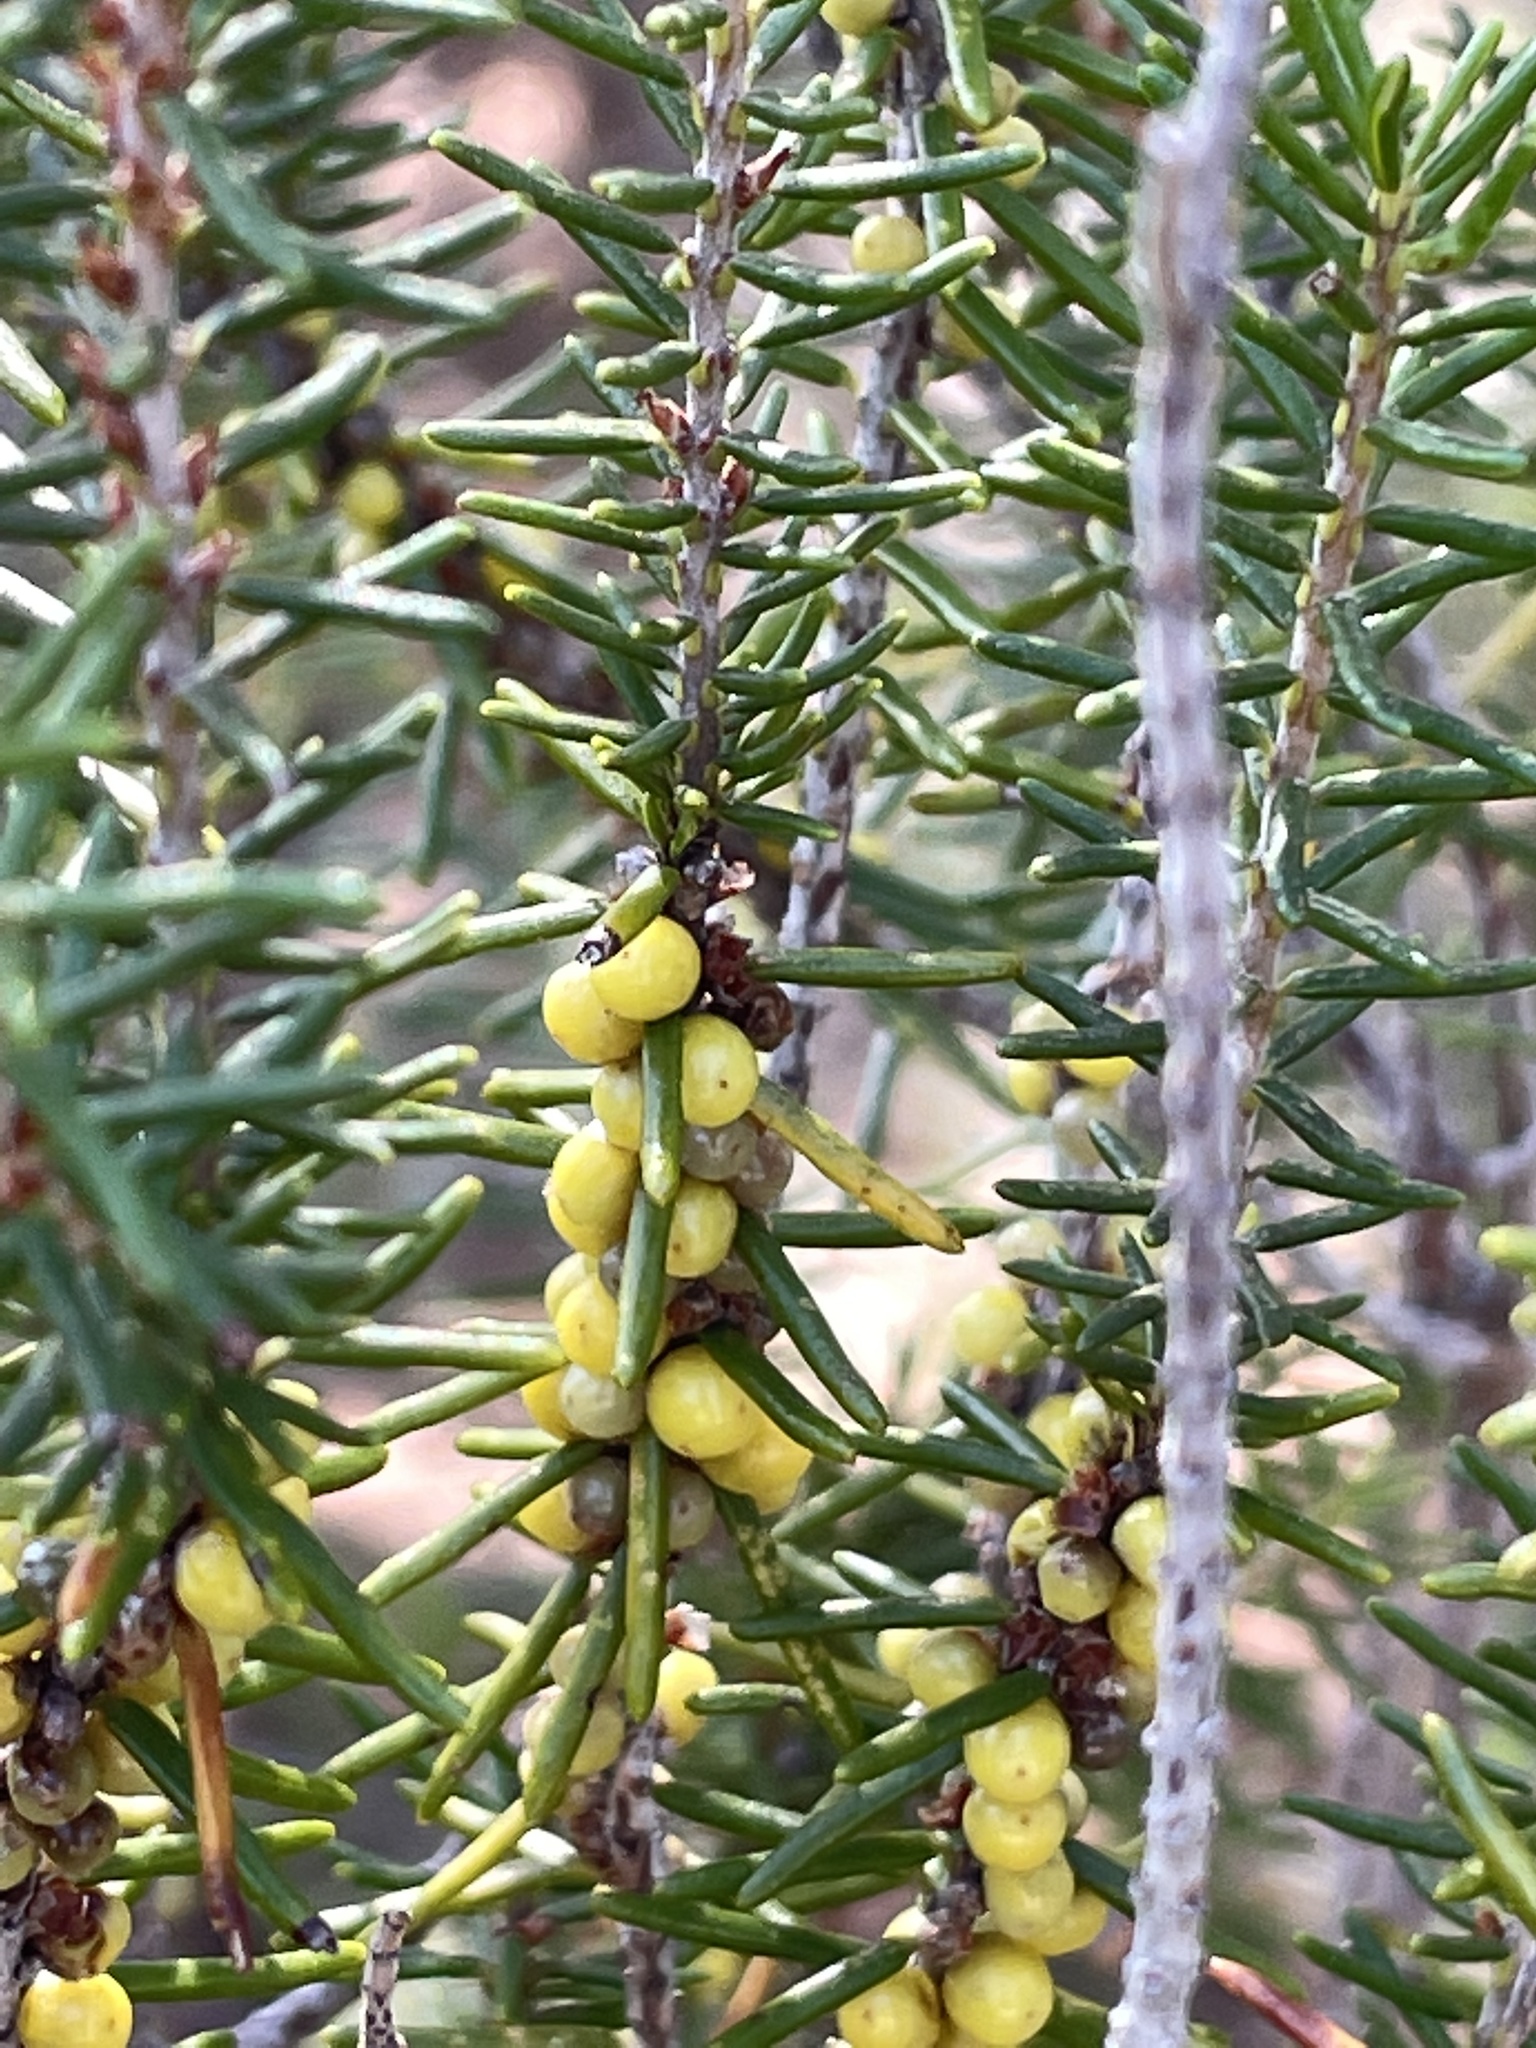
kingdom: Plantae
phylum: Tracheophyta
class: Magnoliopsida
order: Ericales
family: Ericaceae
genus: Ceratiola
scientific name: Ceratiola ericoides
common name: Sandhill-rosemary
